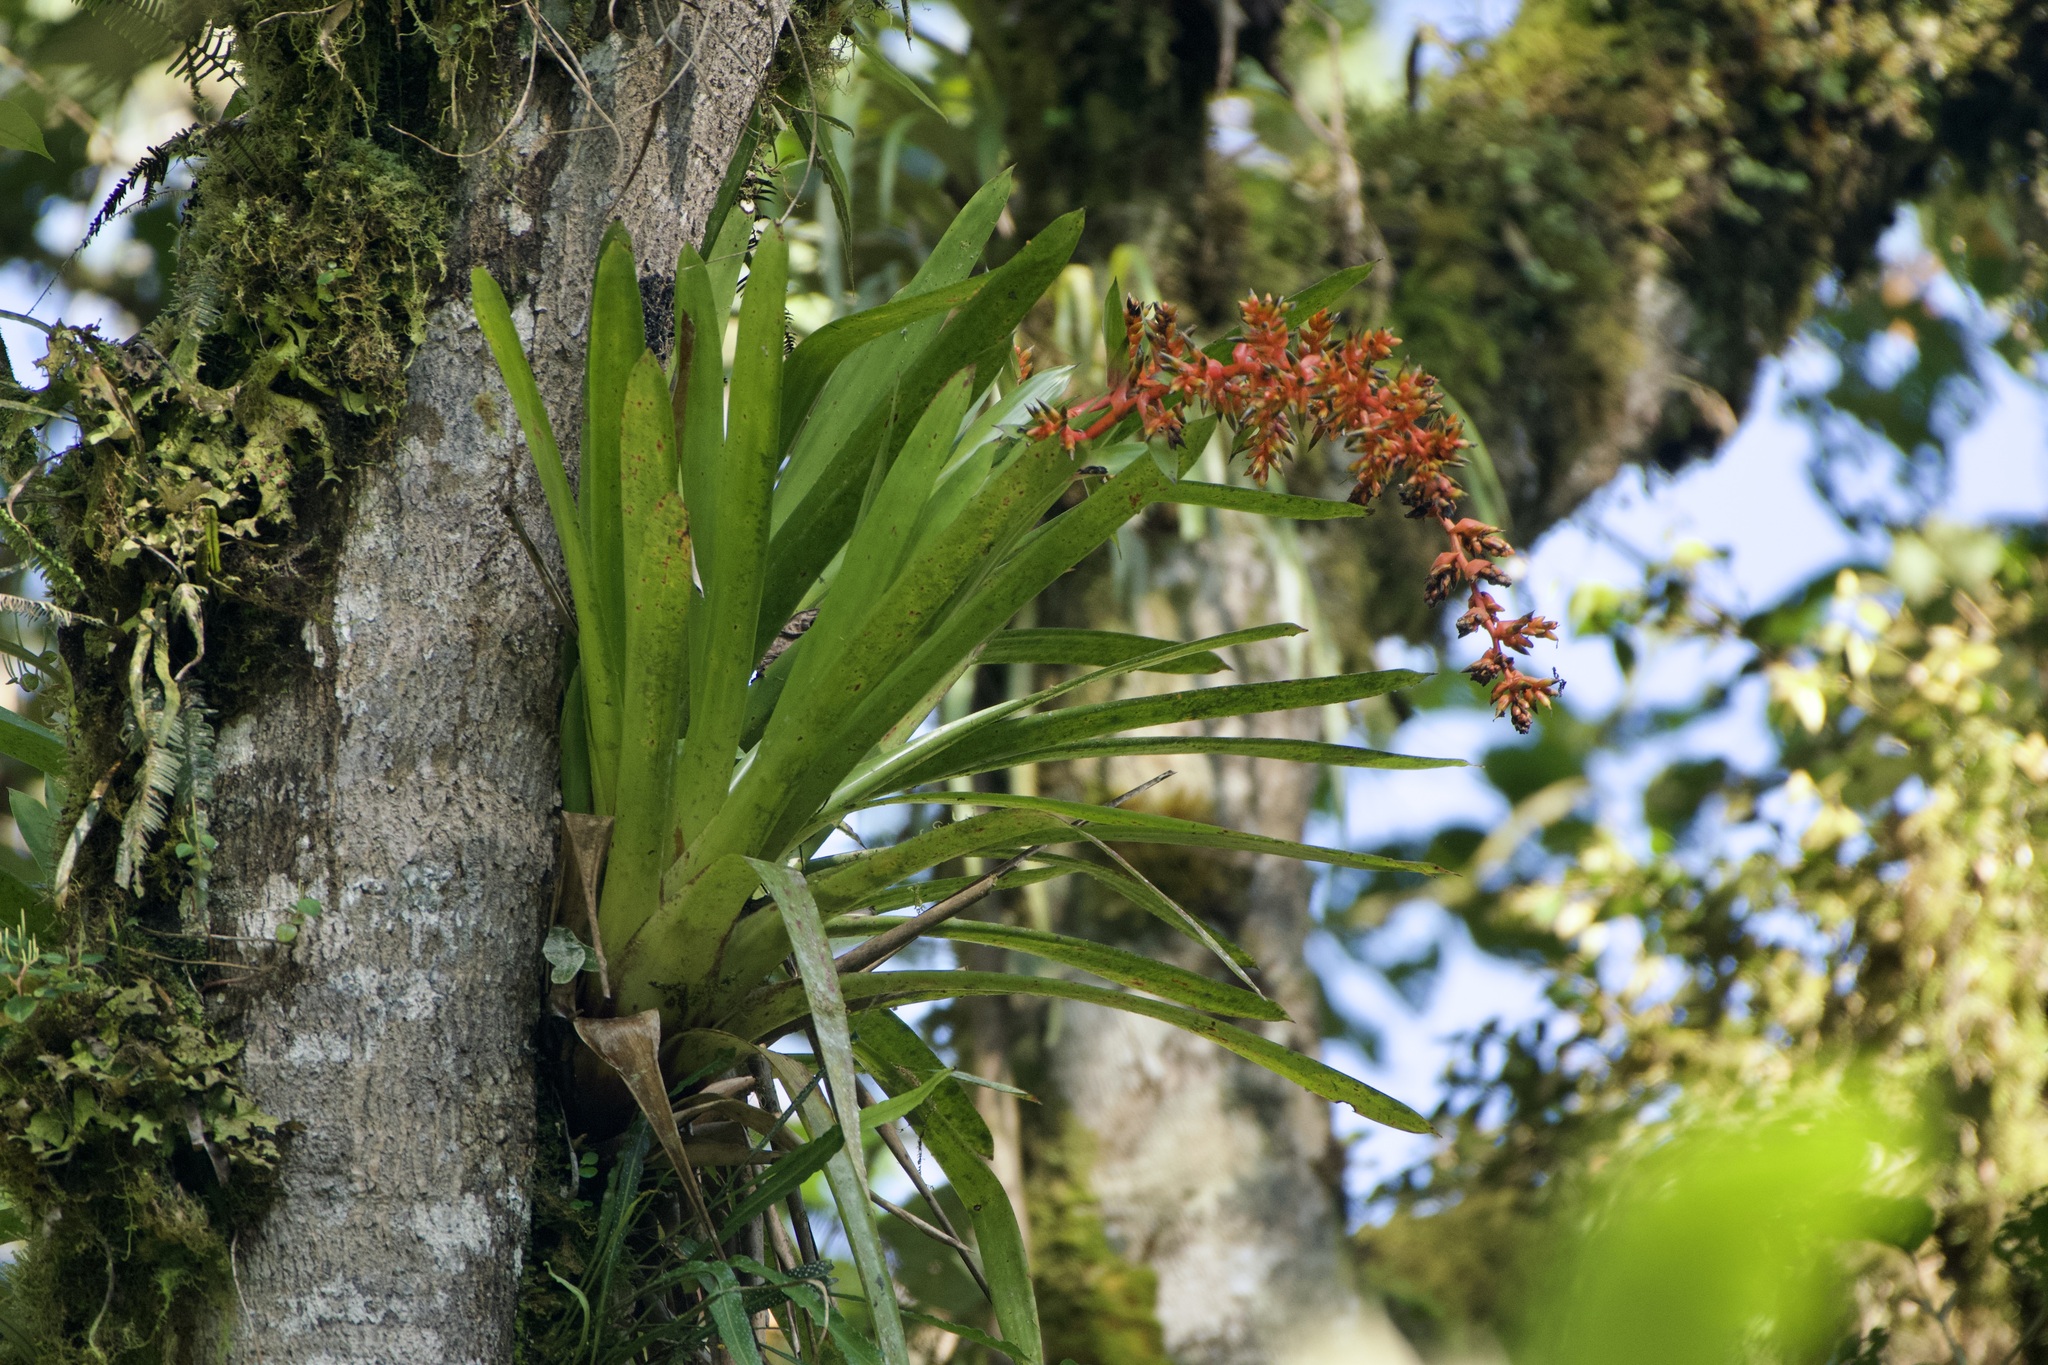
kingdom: Plantae
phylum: Tracheophyta
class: Liliopsida
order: Poales
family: Bromeliaceae
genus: Guzmania
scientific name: Guzmania multiflora
